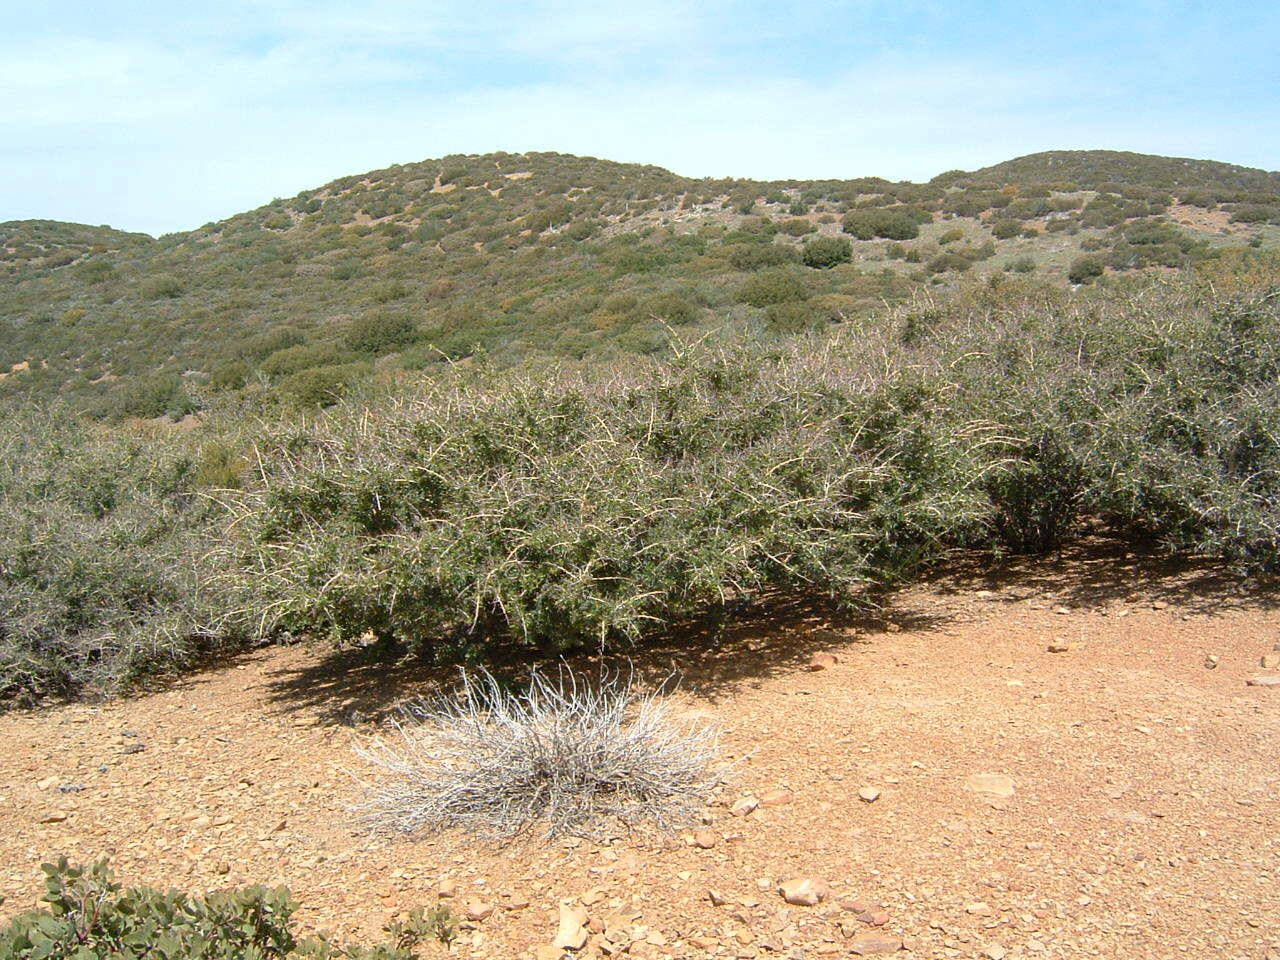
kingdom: Plantae
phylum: Tracheophyta
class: Magnoliopsida
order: Rosales
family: Rhamnaceae
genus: Ceanothus
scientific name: Ceanothus leucodermis
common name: Chaparral whitethorn
